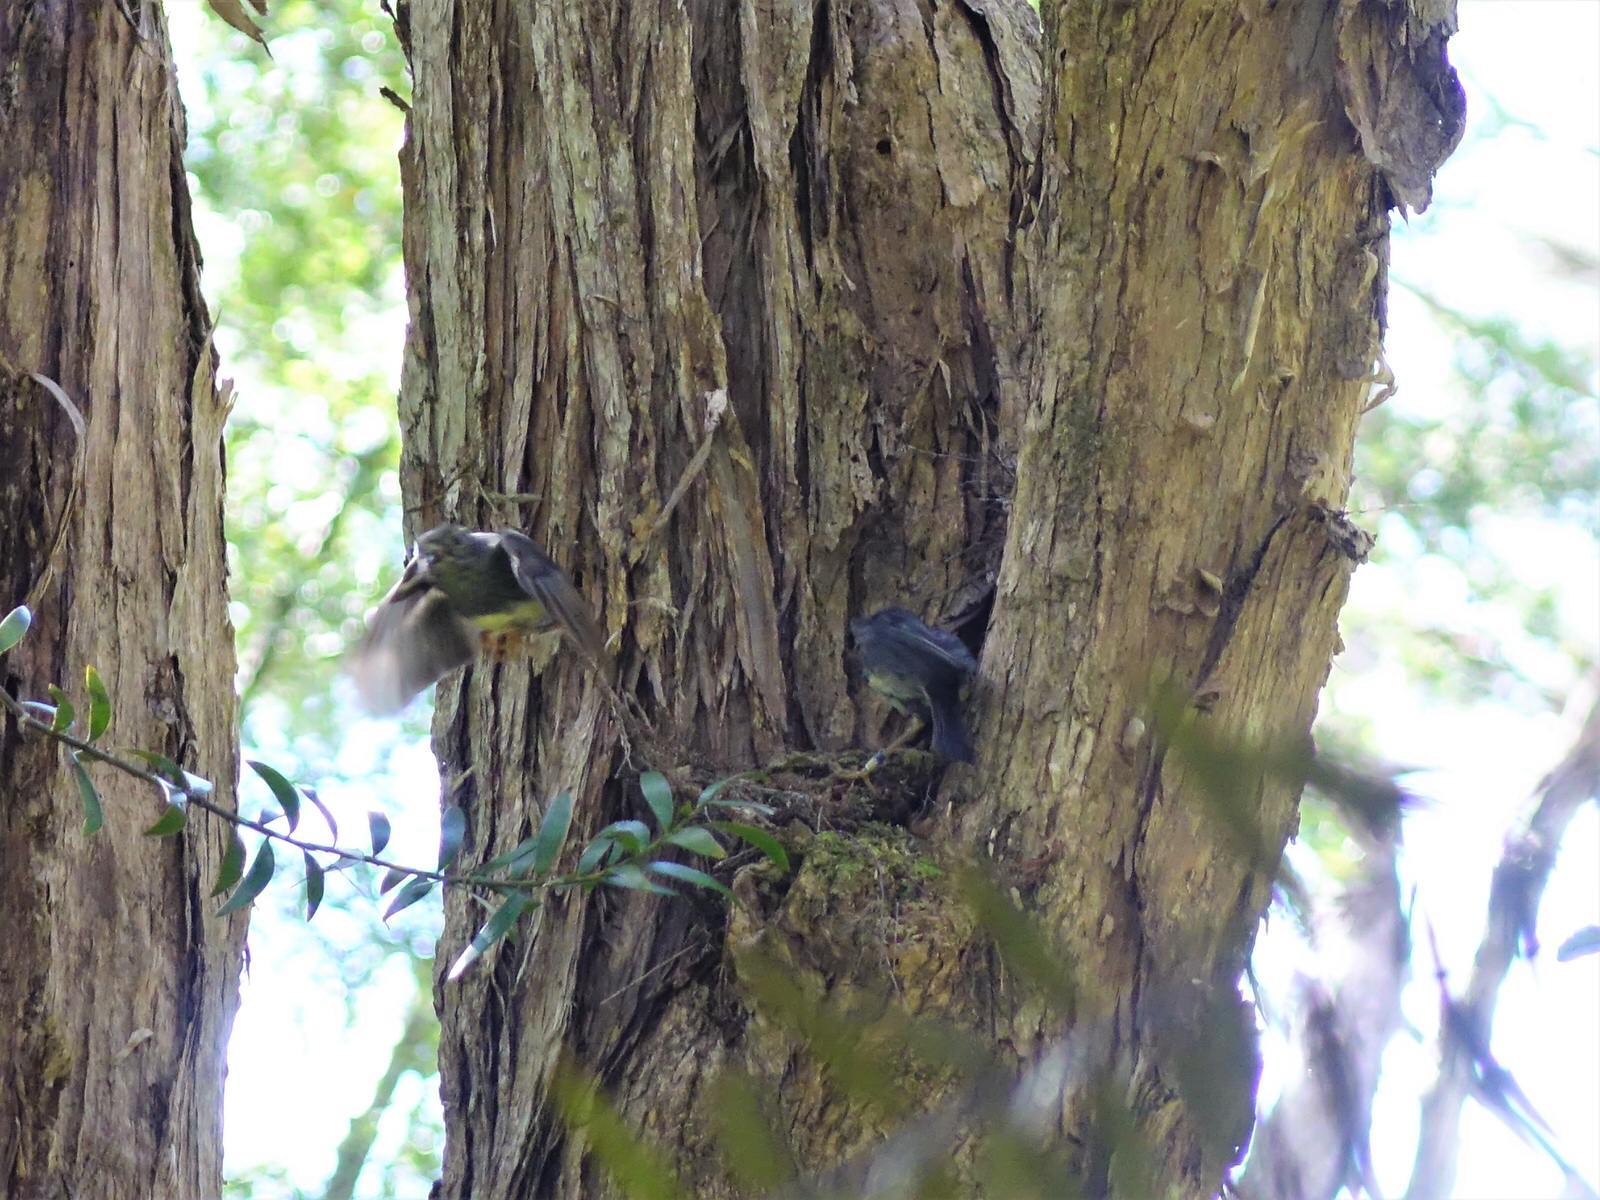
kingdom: Animalia
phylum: Chordata
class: Aves
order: Passeriformes
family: Petroicidae
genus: Petroica
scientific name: Petroica australis
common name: New zealand robin
